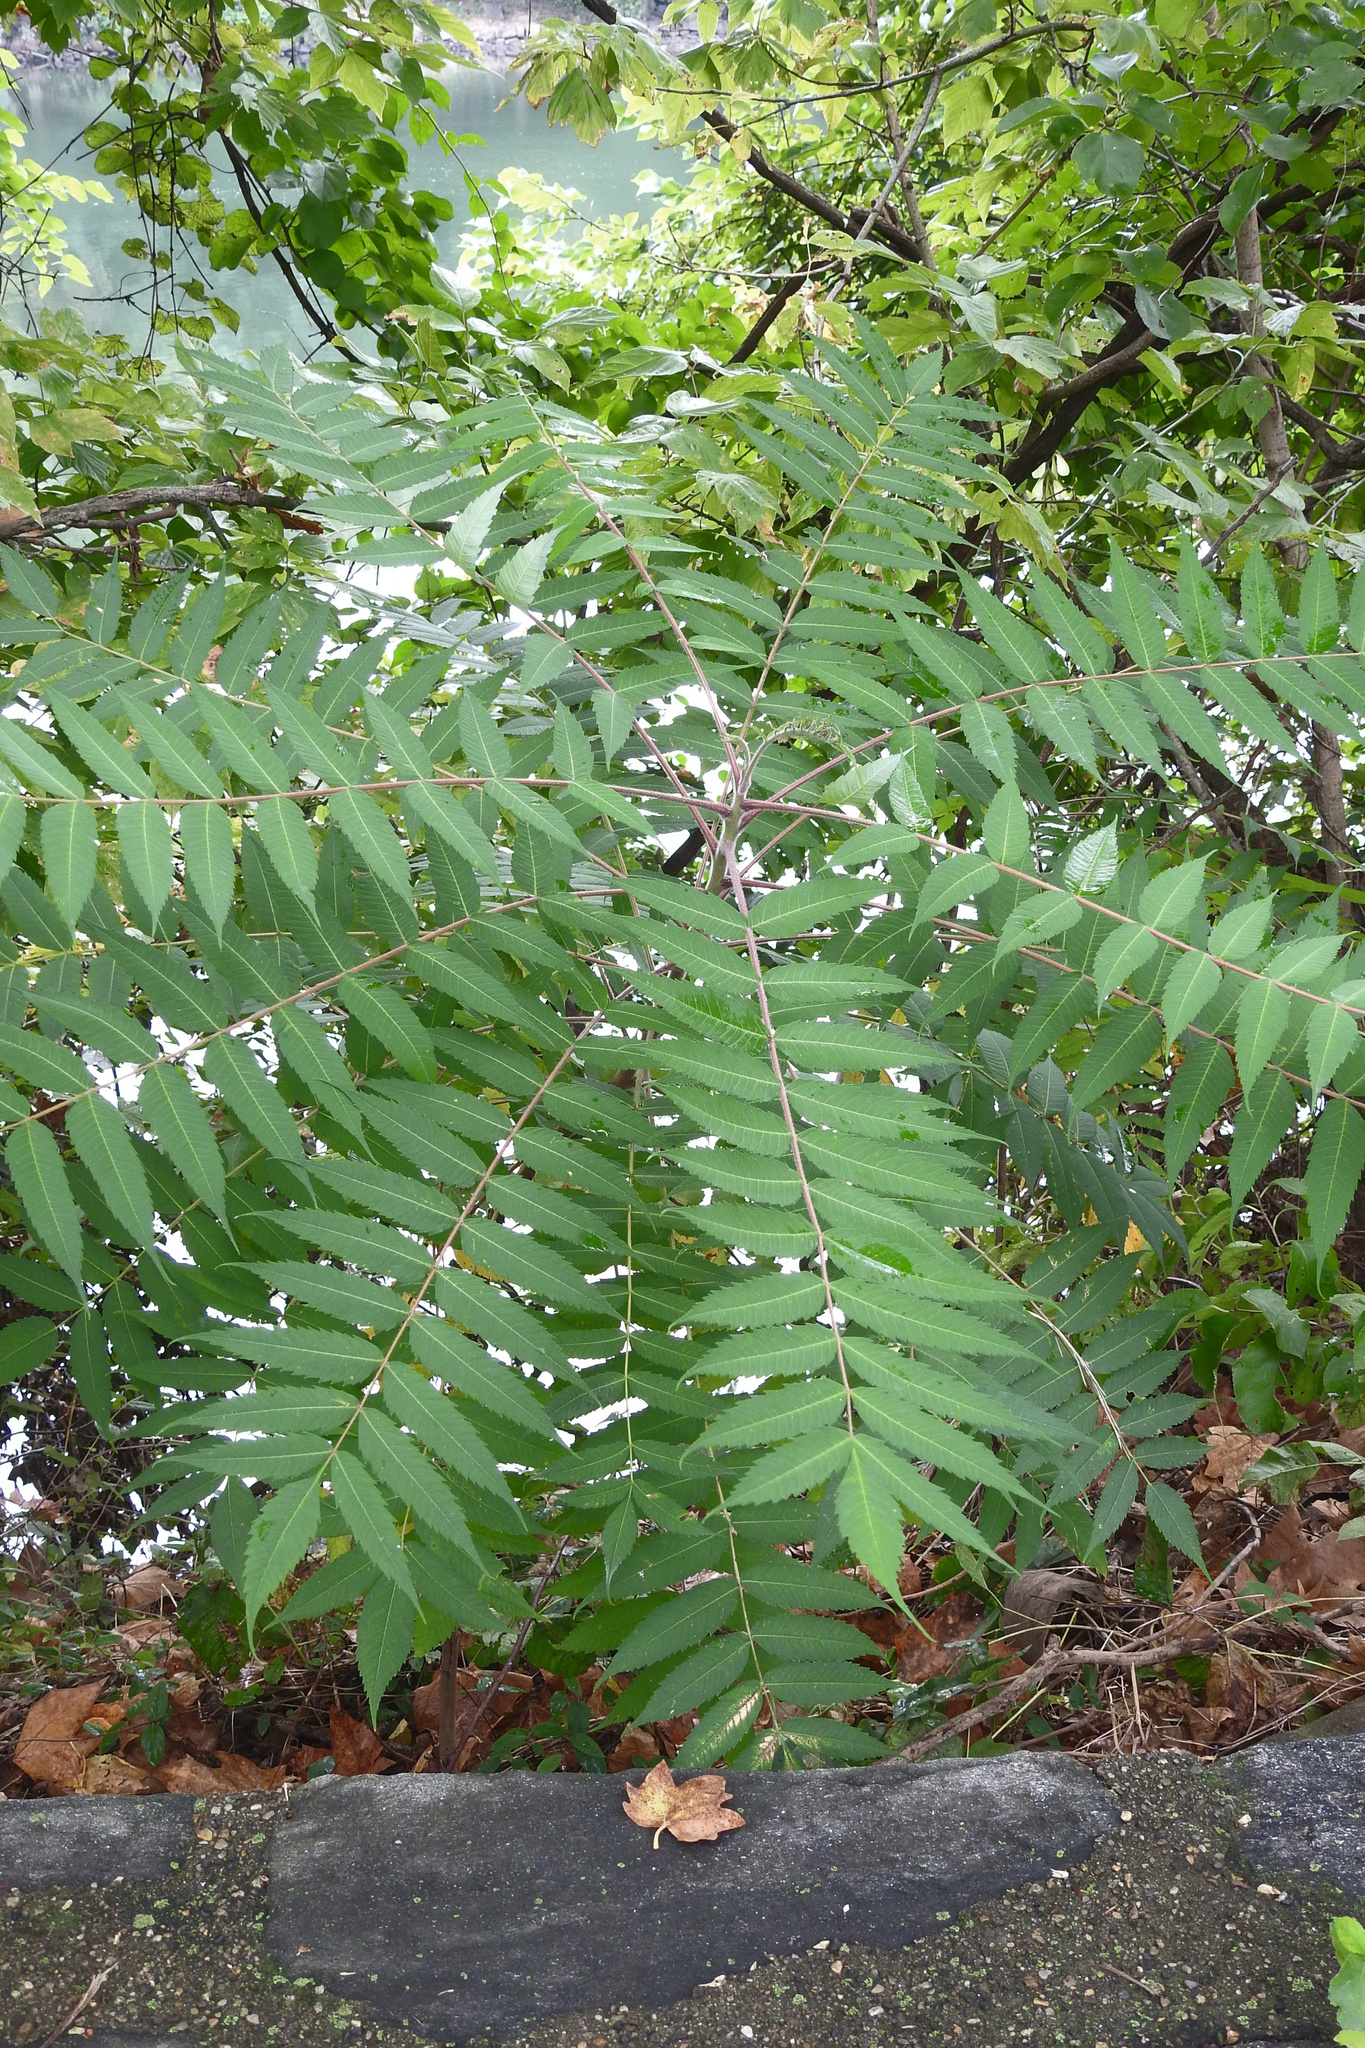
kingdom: Plantae
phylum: Tracheophyta
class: Magnoliopsida
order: Sapindales
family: Anacardiaceae
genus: Rhus
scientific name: Rhus typhina
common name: Staghorn sumac
